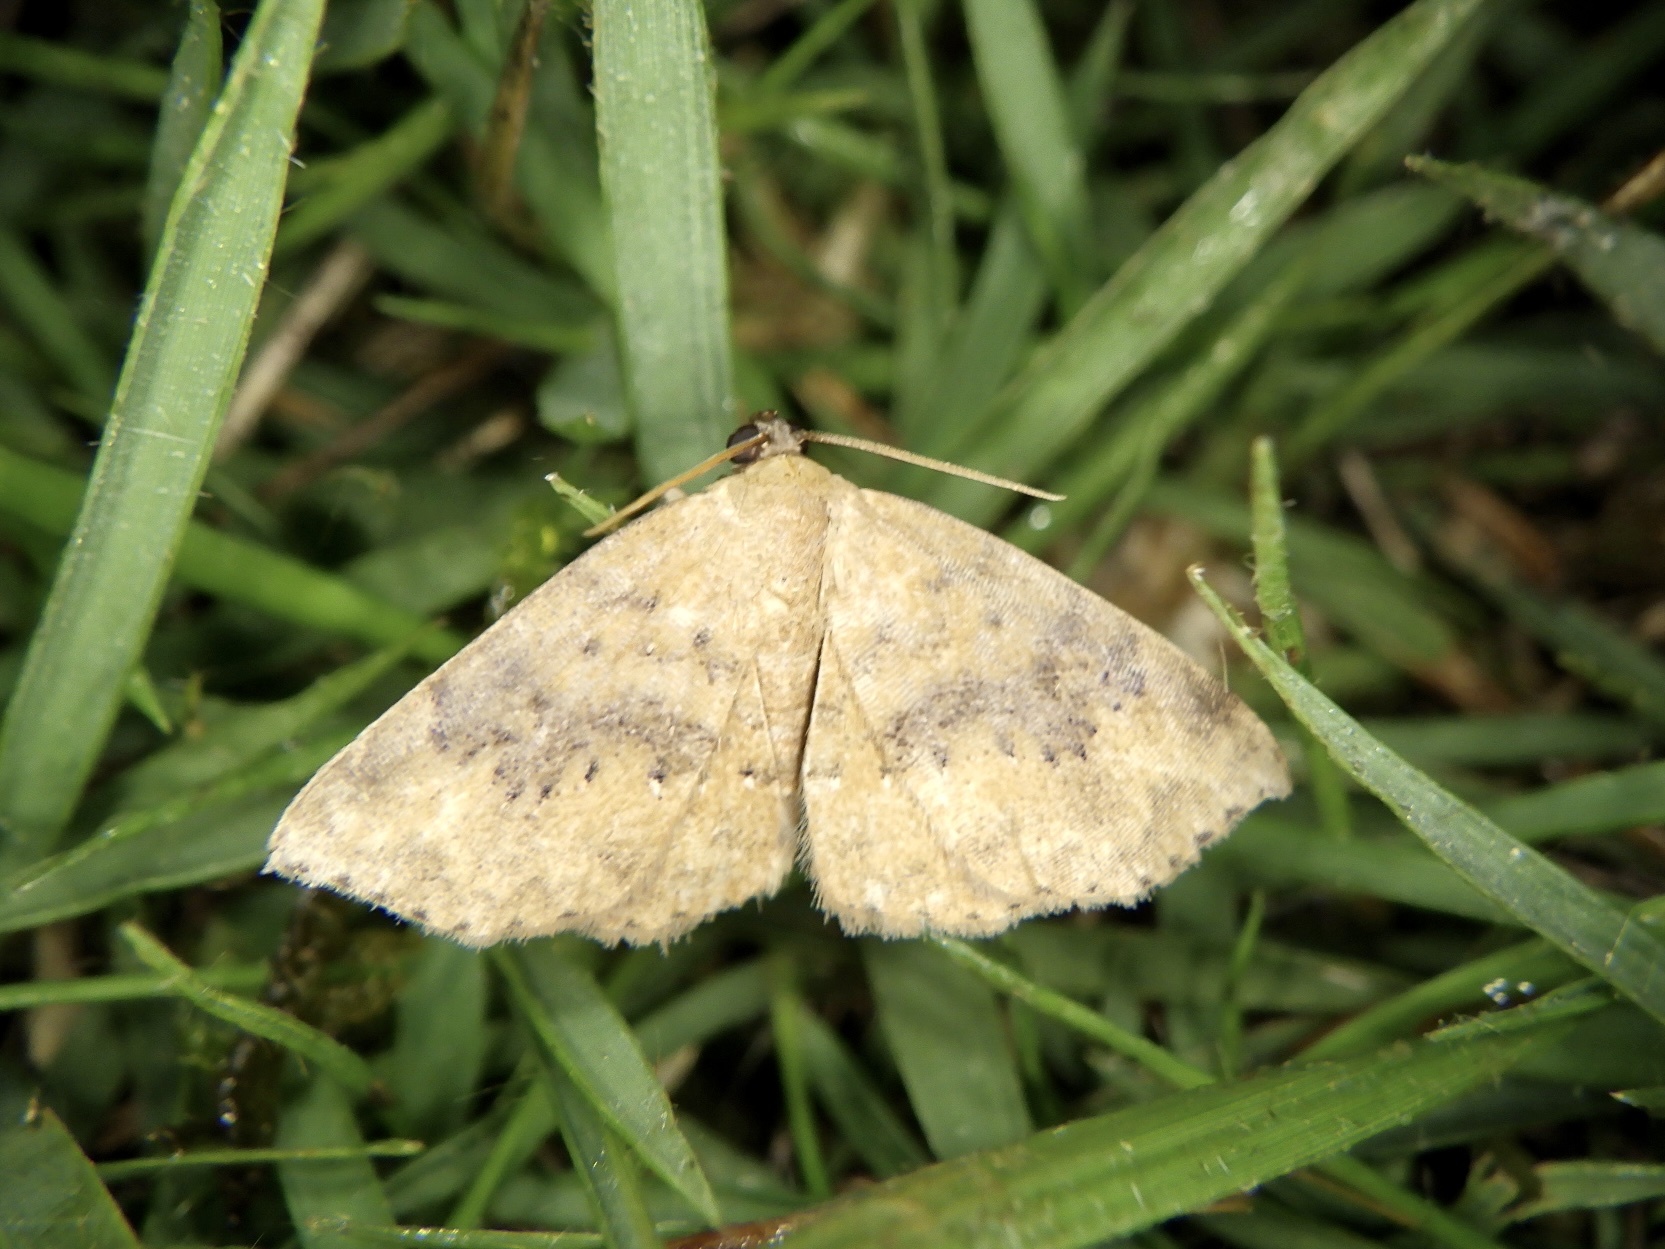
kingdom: Animalia
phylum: Arthropoda
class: Insecta
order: Lepidoptera
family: Noctuidae
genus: Oruza
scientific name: Oruza brunnea
